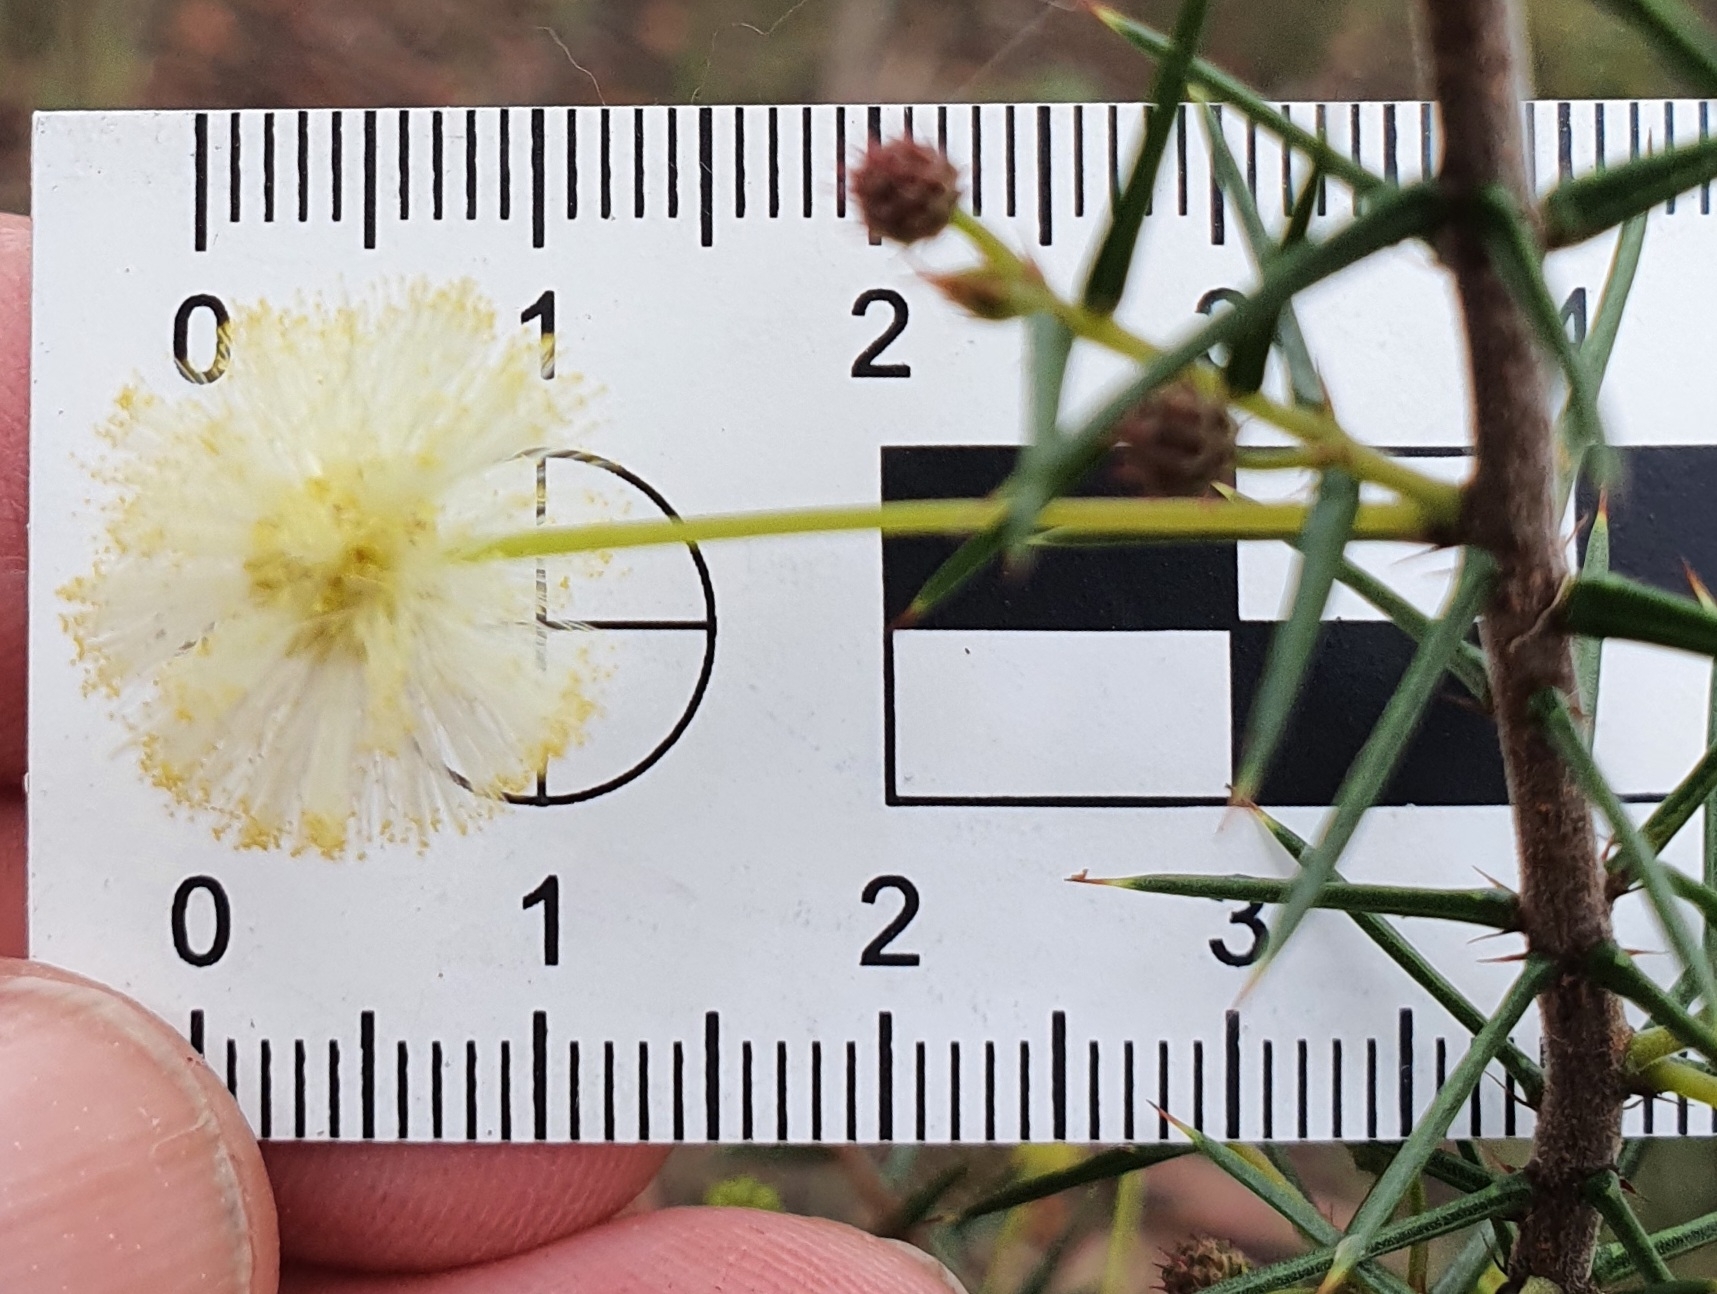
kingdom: Plantae
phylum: Tracheophyta
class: Magnoliopsida
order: Fabales
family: Fabaceae
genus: Acacia
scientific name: Acacia ulicifolia
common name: Juniper wattle
